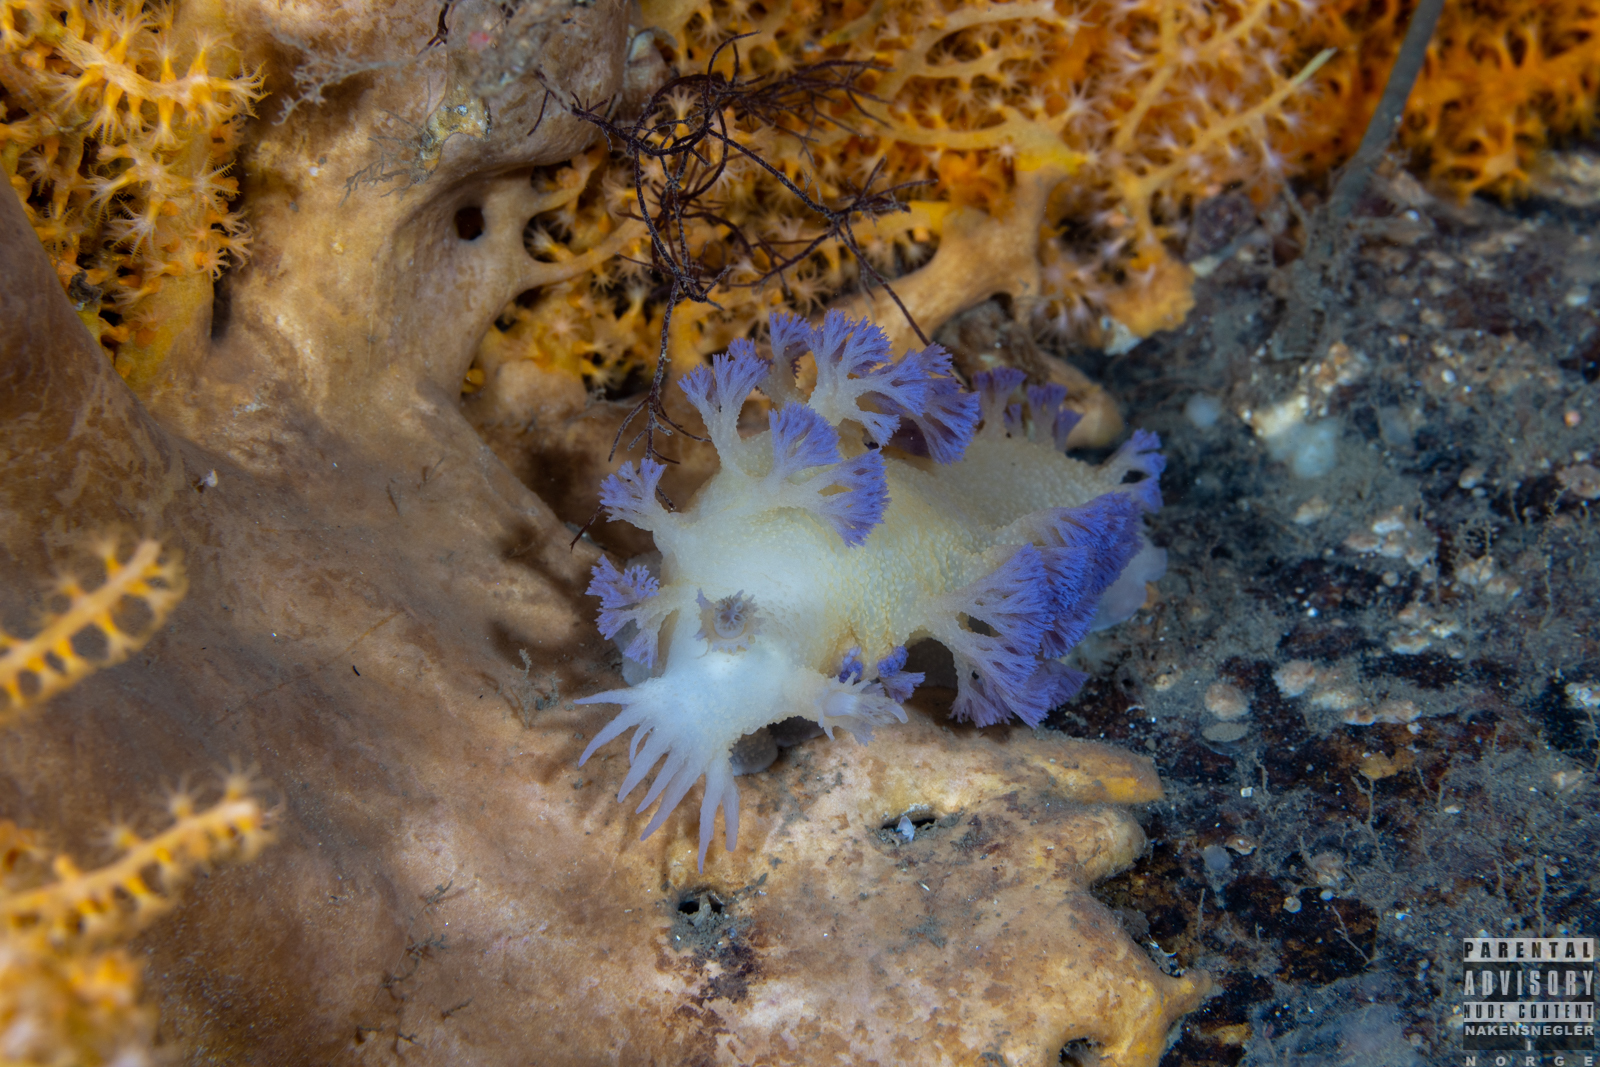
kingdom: Animalia
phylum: Mollusca
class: Gastropoda
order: Nudibranchia
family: Tritoniidae
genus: Tritonia
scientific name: Tritonia griegi
